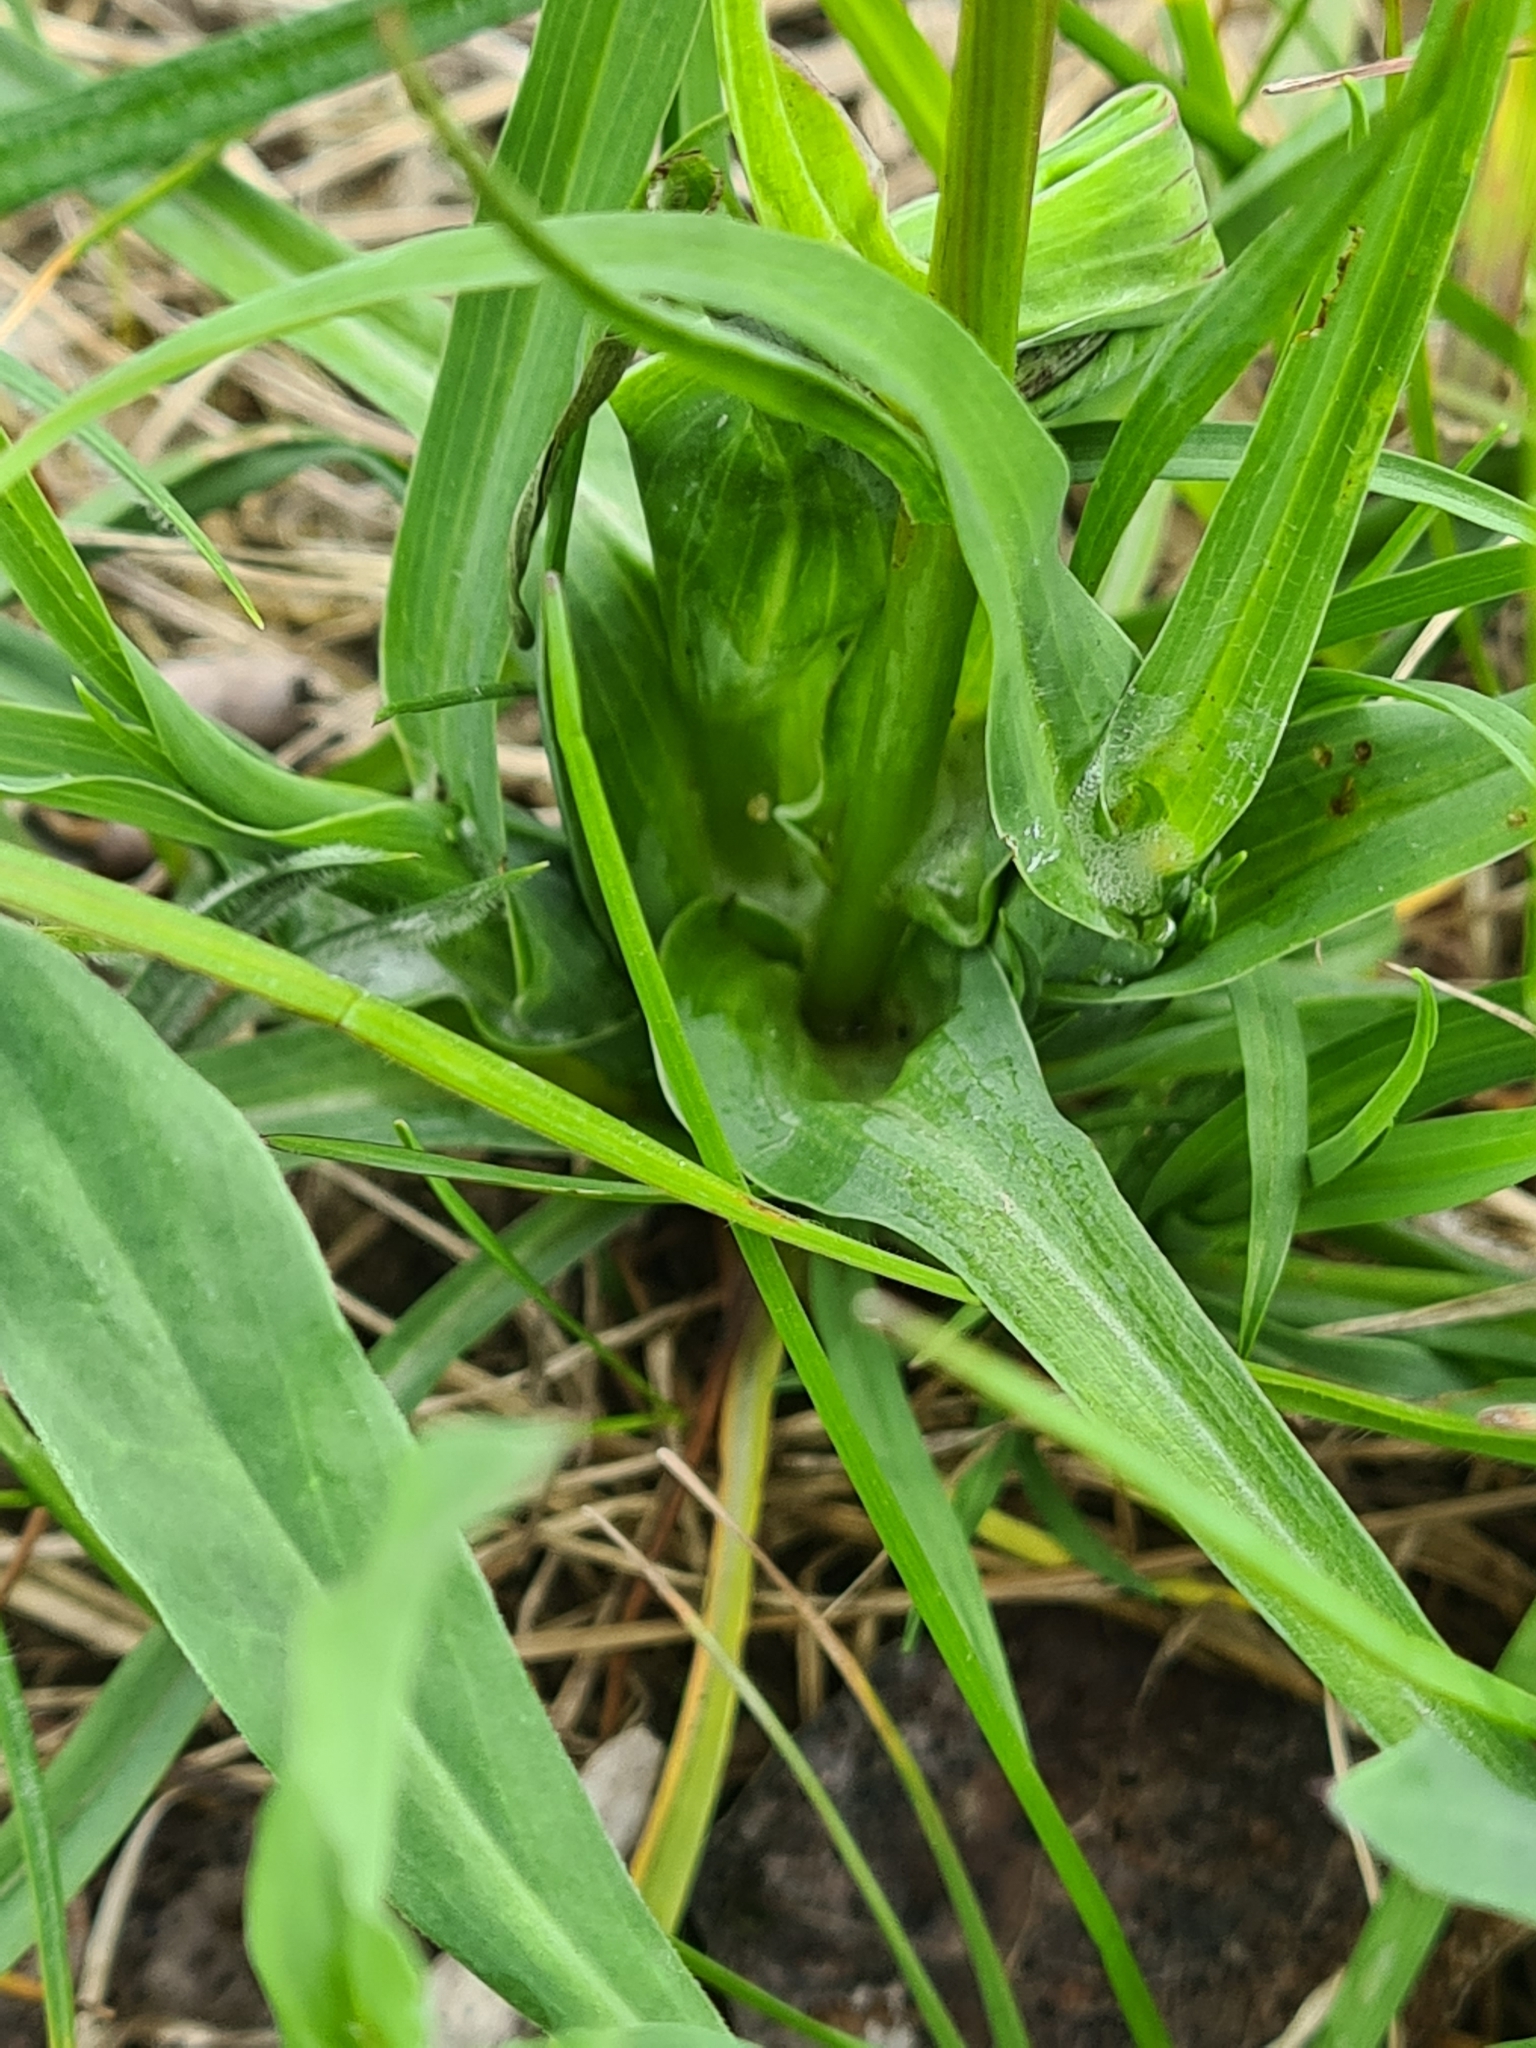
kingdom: Plantae
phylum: Tracheophyta
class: Magnoliopsida
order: Asterales
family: Asteraceae
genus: Tragopogon
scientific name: Tragopogon orientalis
